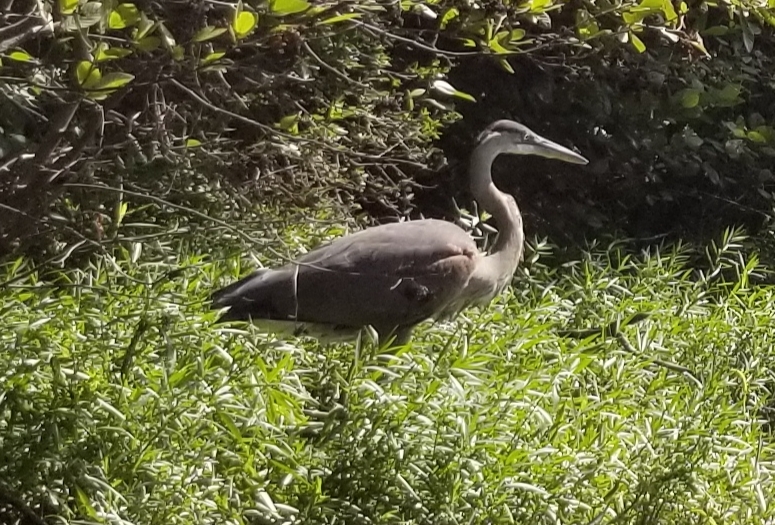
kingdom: Animalia
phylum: Chordata
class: Aves
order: Pelecaniformes
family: Ardeidae
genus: Ardea
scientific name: Ardea herodias
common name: Great blue heron
